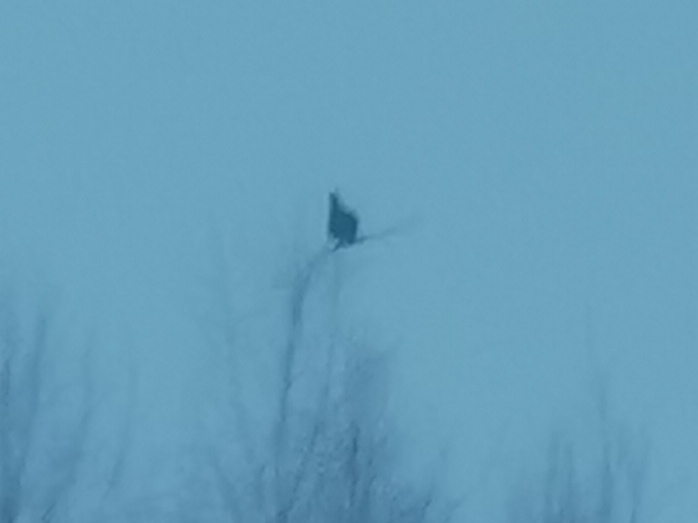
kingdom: Animalia
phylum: Chordata
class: Aves
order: Galliformes
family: Phasianidae
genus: Lyrurus
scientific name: Lyrurus tetrix
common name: Black grouse
